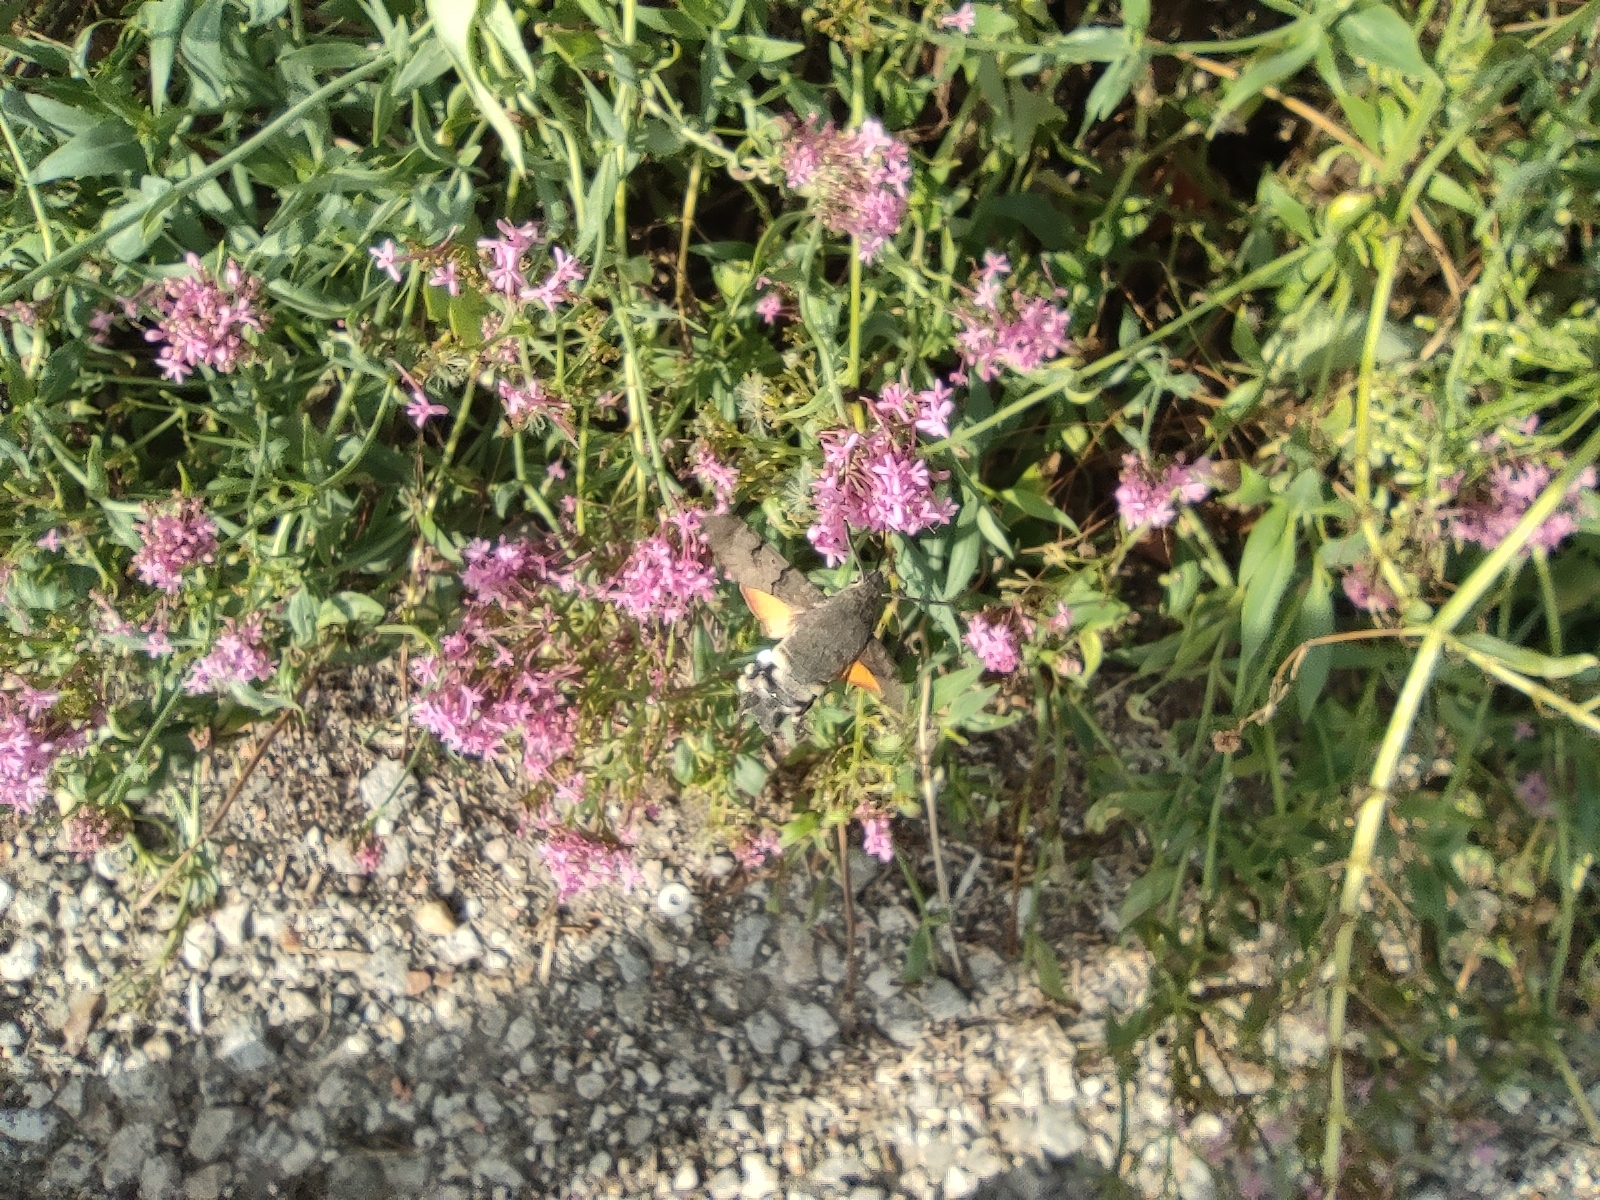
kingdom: Animalia
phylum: Arthropoda
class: Insecta
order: Lepidoptera
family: Sphingidae
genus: Macroglossum
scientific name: Macroglossum stellatarum
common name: Humming-bird hawk-moth
